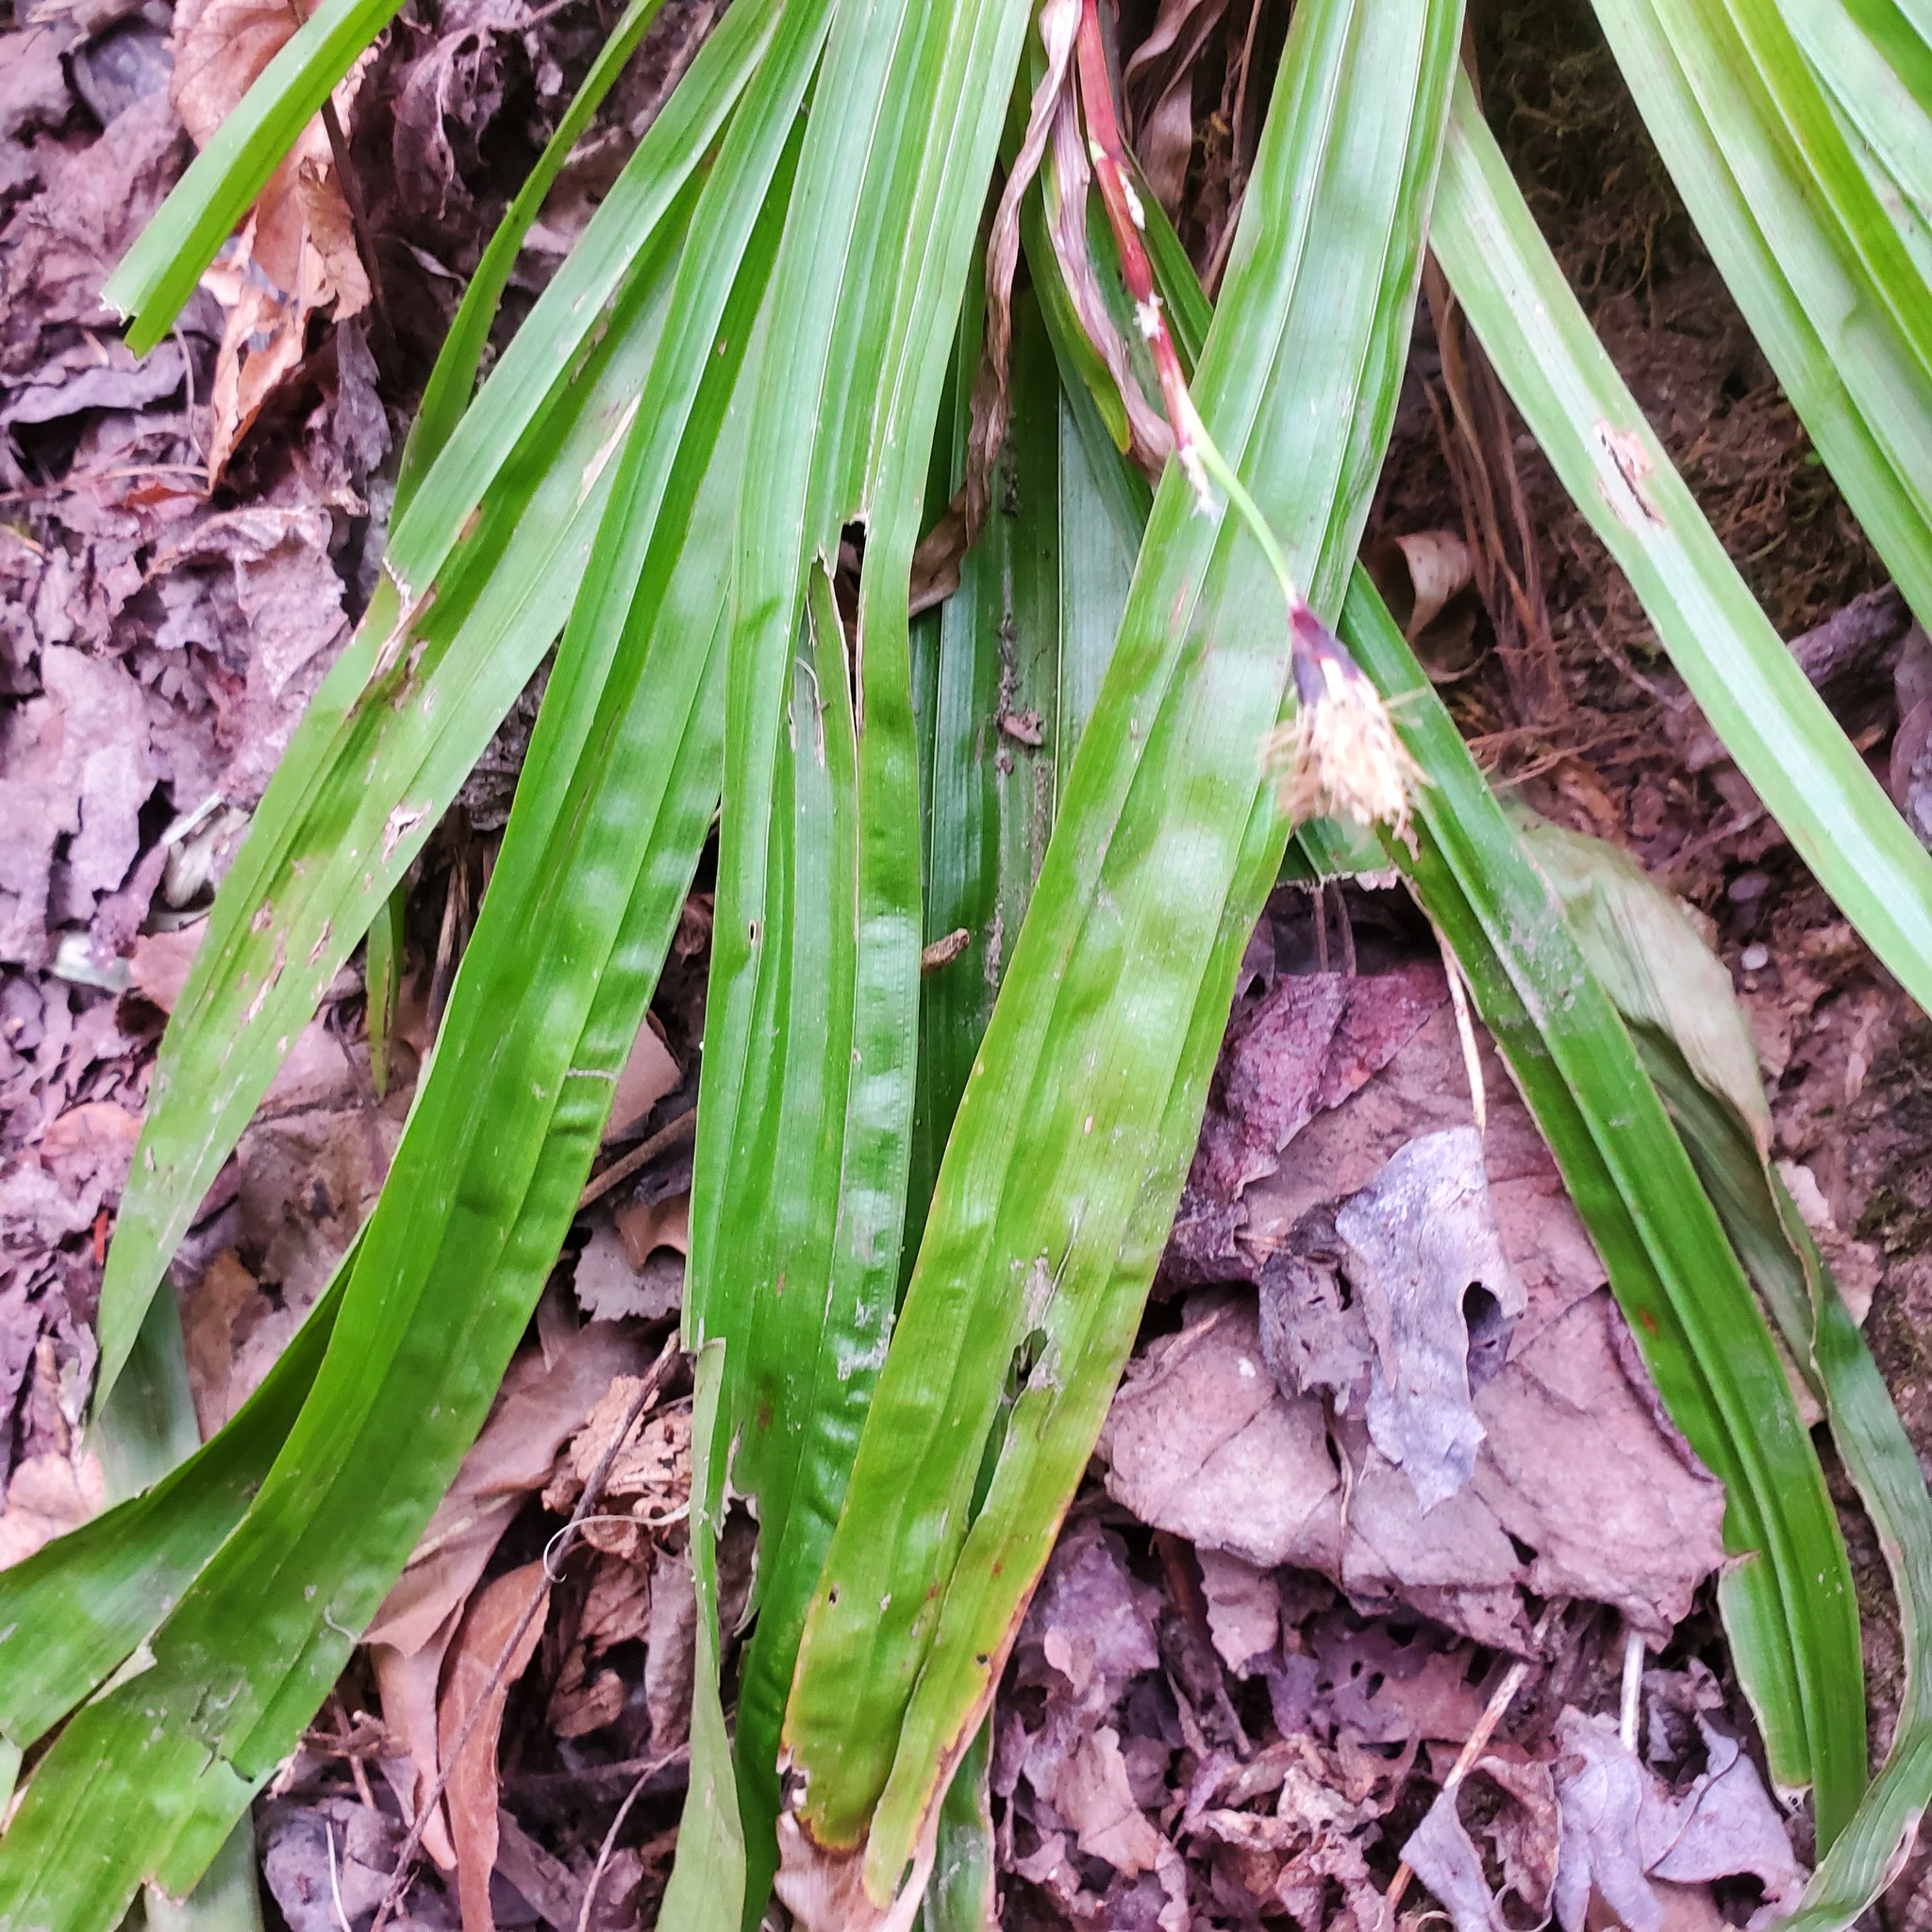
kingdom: Plantae
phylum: Tracheophyta
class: Liliopsida
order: Poales
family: Cyperaceae
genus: Carex
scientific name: Carex plantaginea
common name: Plantain-leaved sedge
